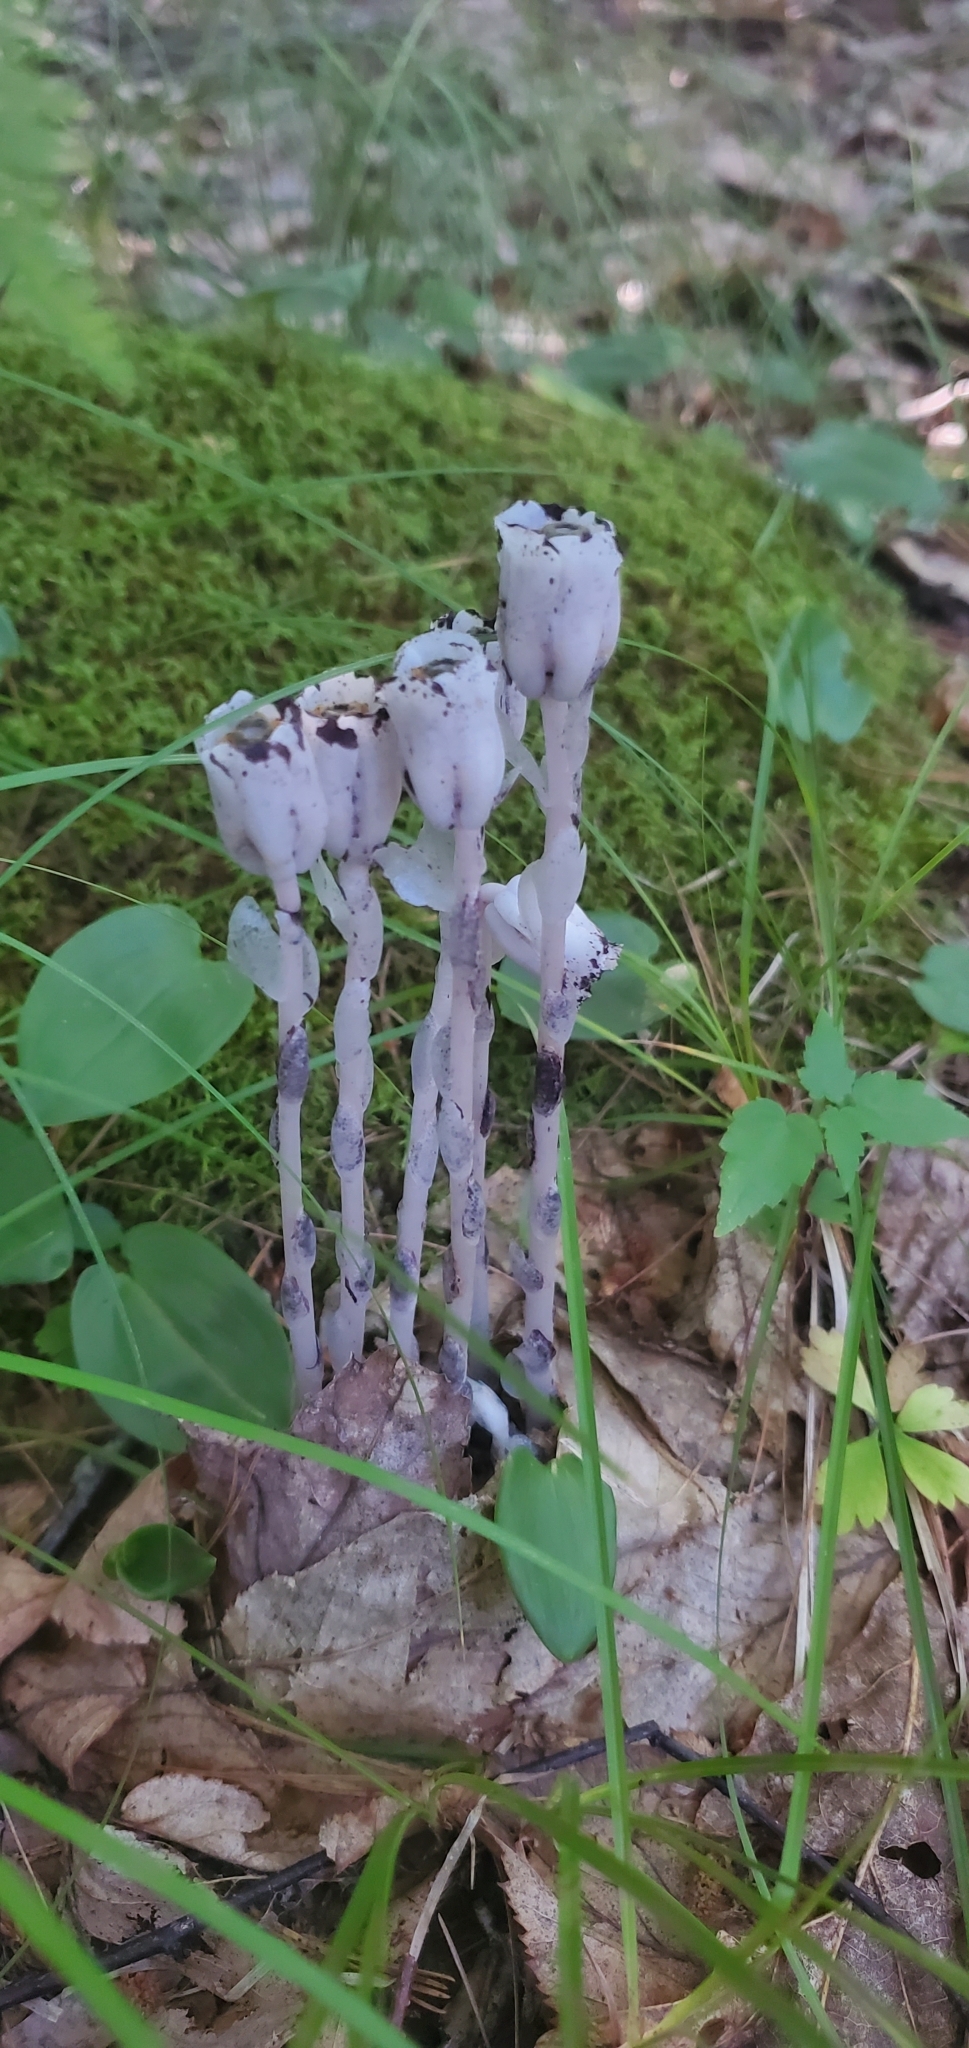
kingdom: Plantae
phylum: Tracheophyta
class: Magnoliopsida
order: Ericales
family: Ericaceae
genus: Monotropa
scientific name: Monotropa uniflora
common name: Convulsion root
